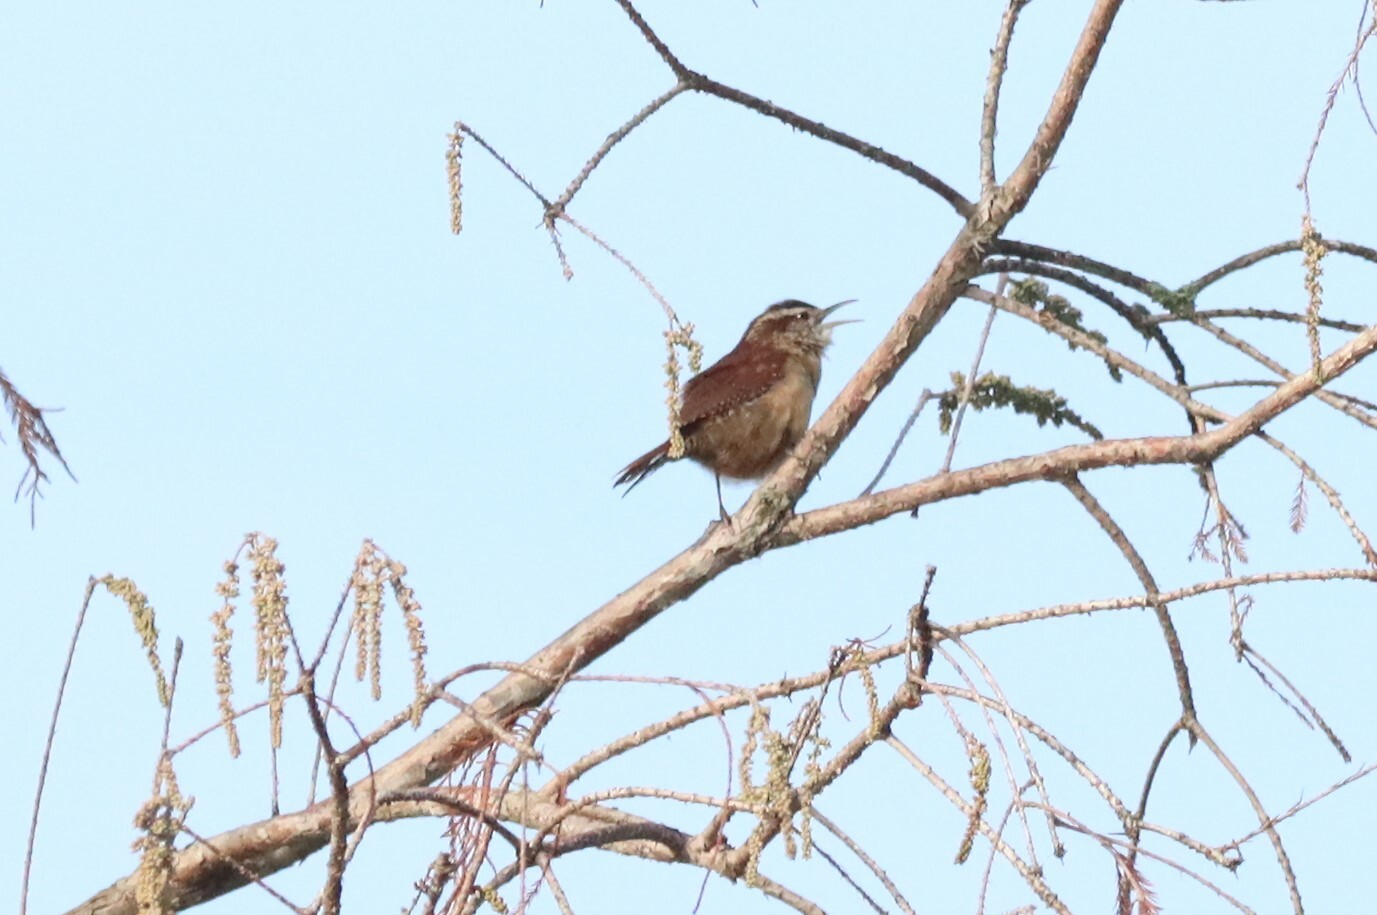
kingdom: Animalia
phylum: Chordata
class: Aves
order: Passeriformes
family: Troglodytidae
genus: Thryothorus
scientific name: Thryothorus ludovicianus
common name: Carolina wren
